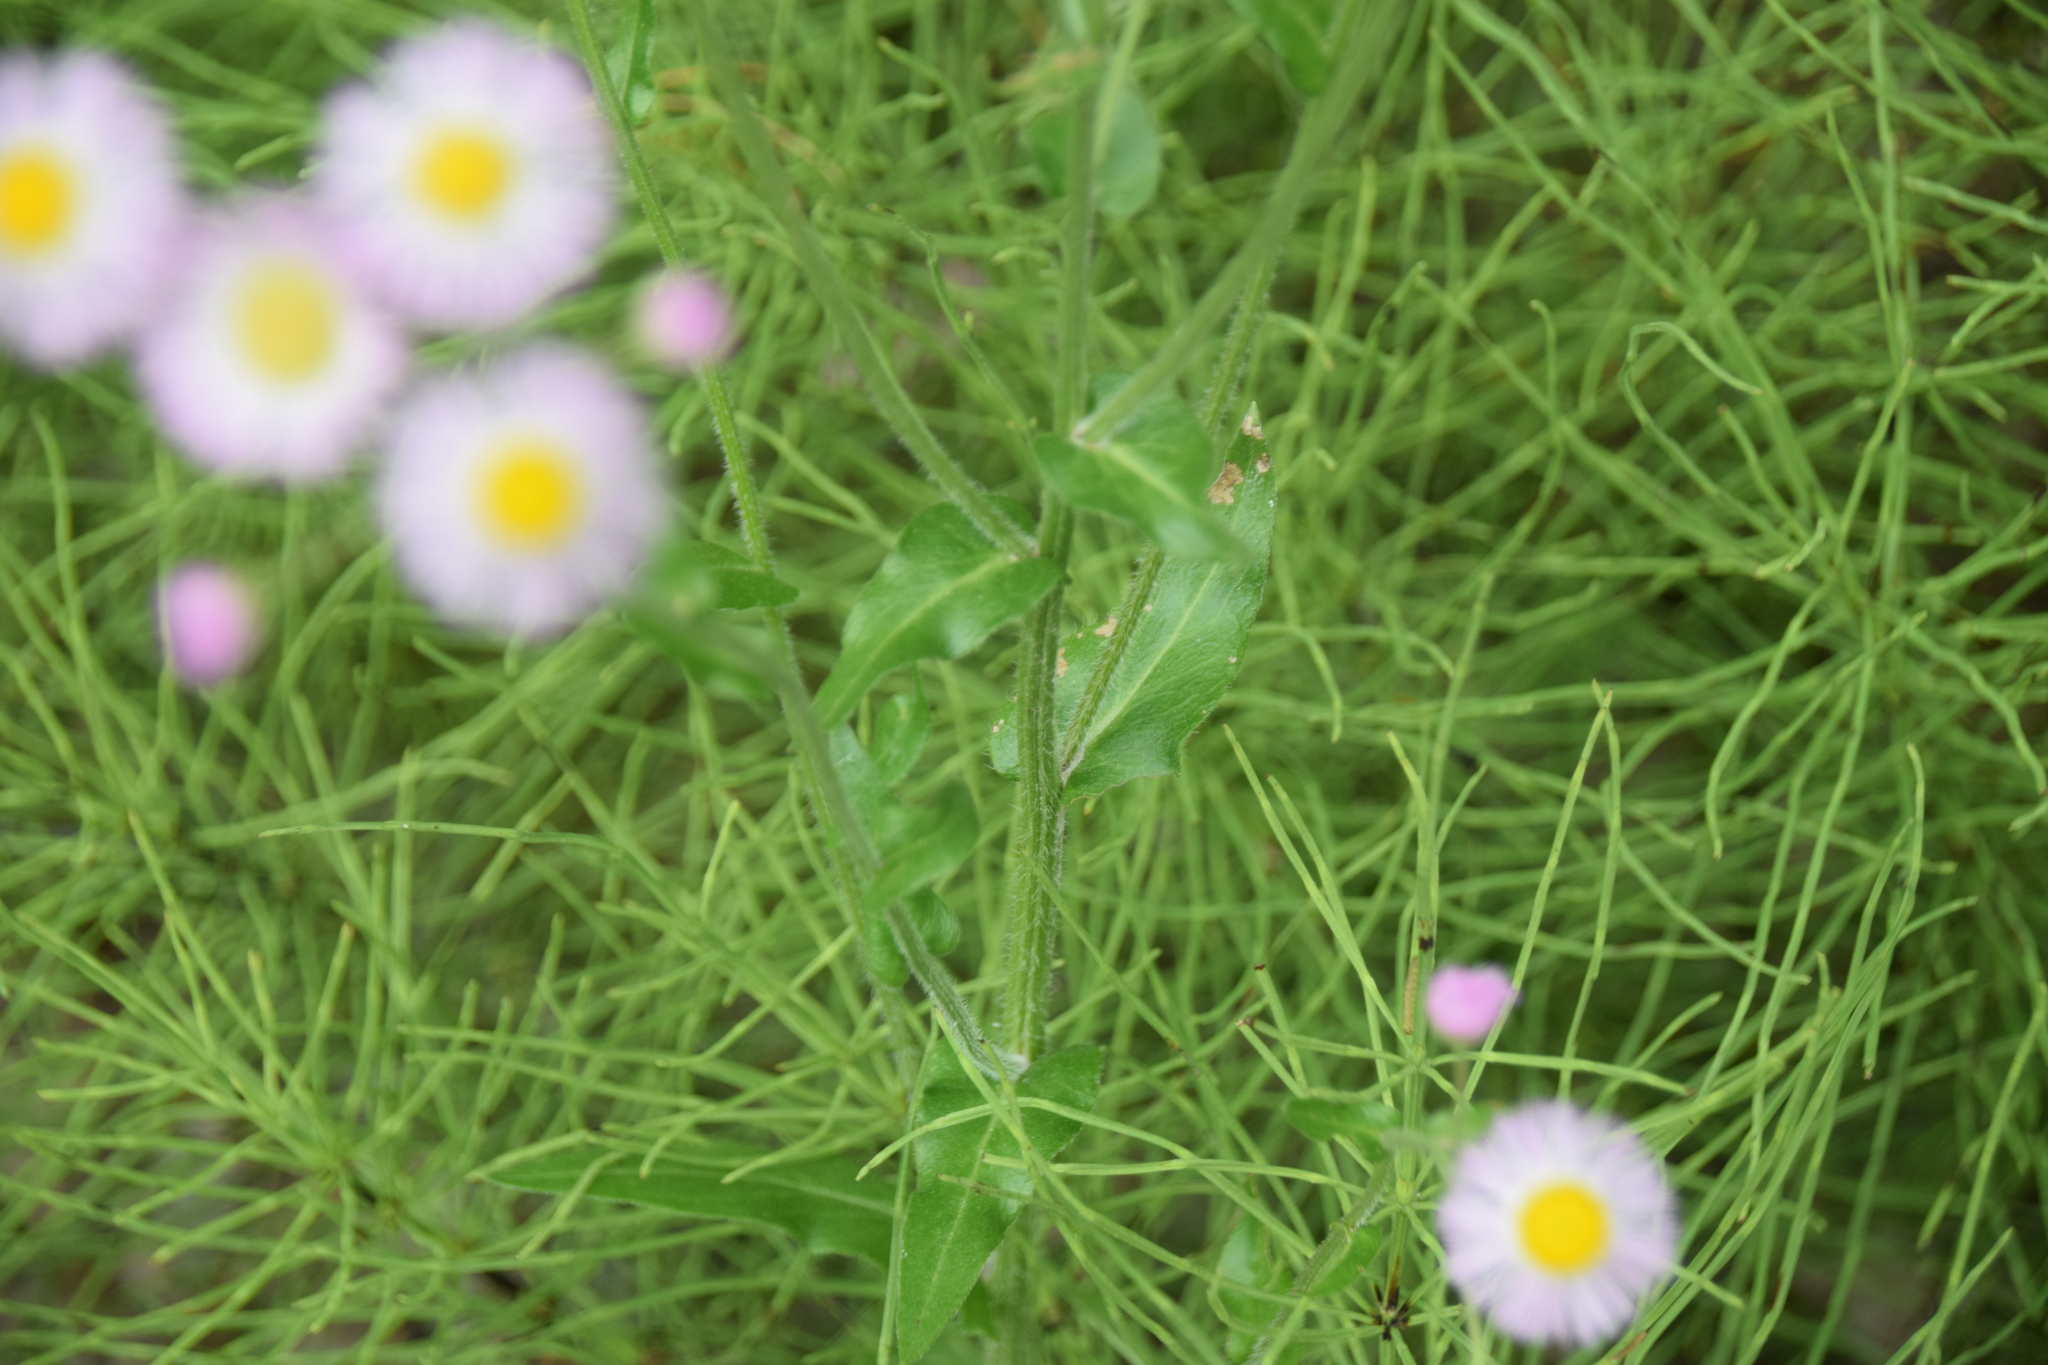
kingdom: Plantae
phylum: Tracheophyta
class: Magnoliopsida
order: Asterales
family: Asteraceae
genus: Erigeron
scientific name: Erigeron philadelphicus
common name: Robin's-plantain
